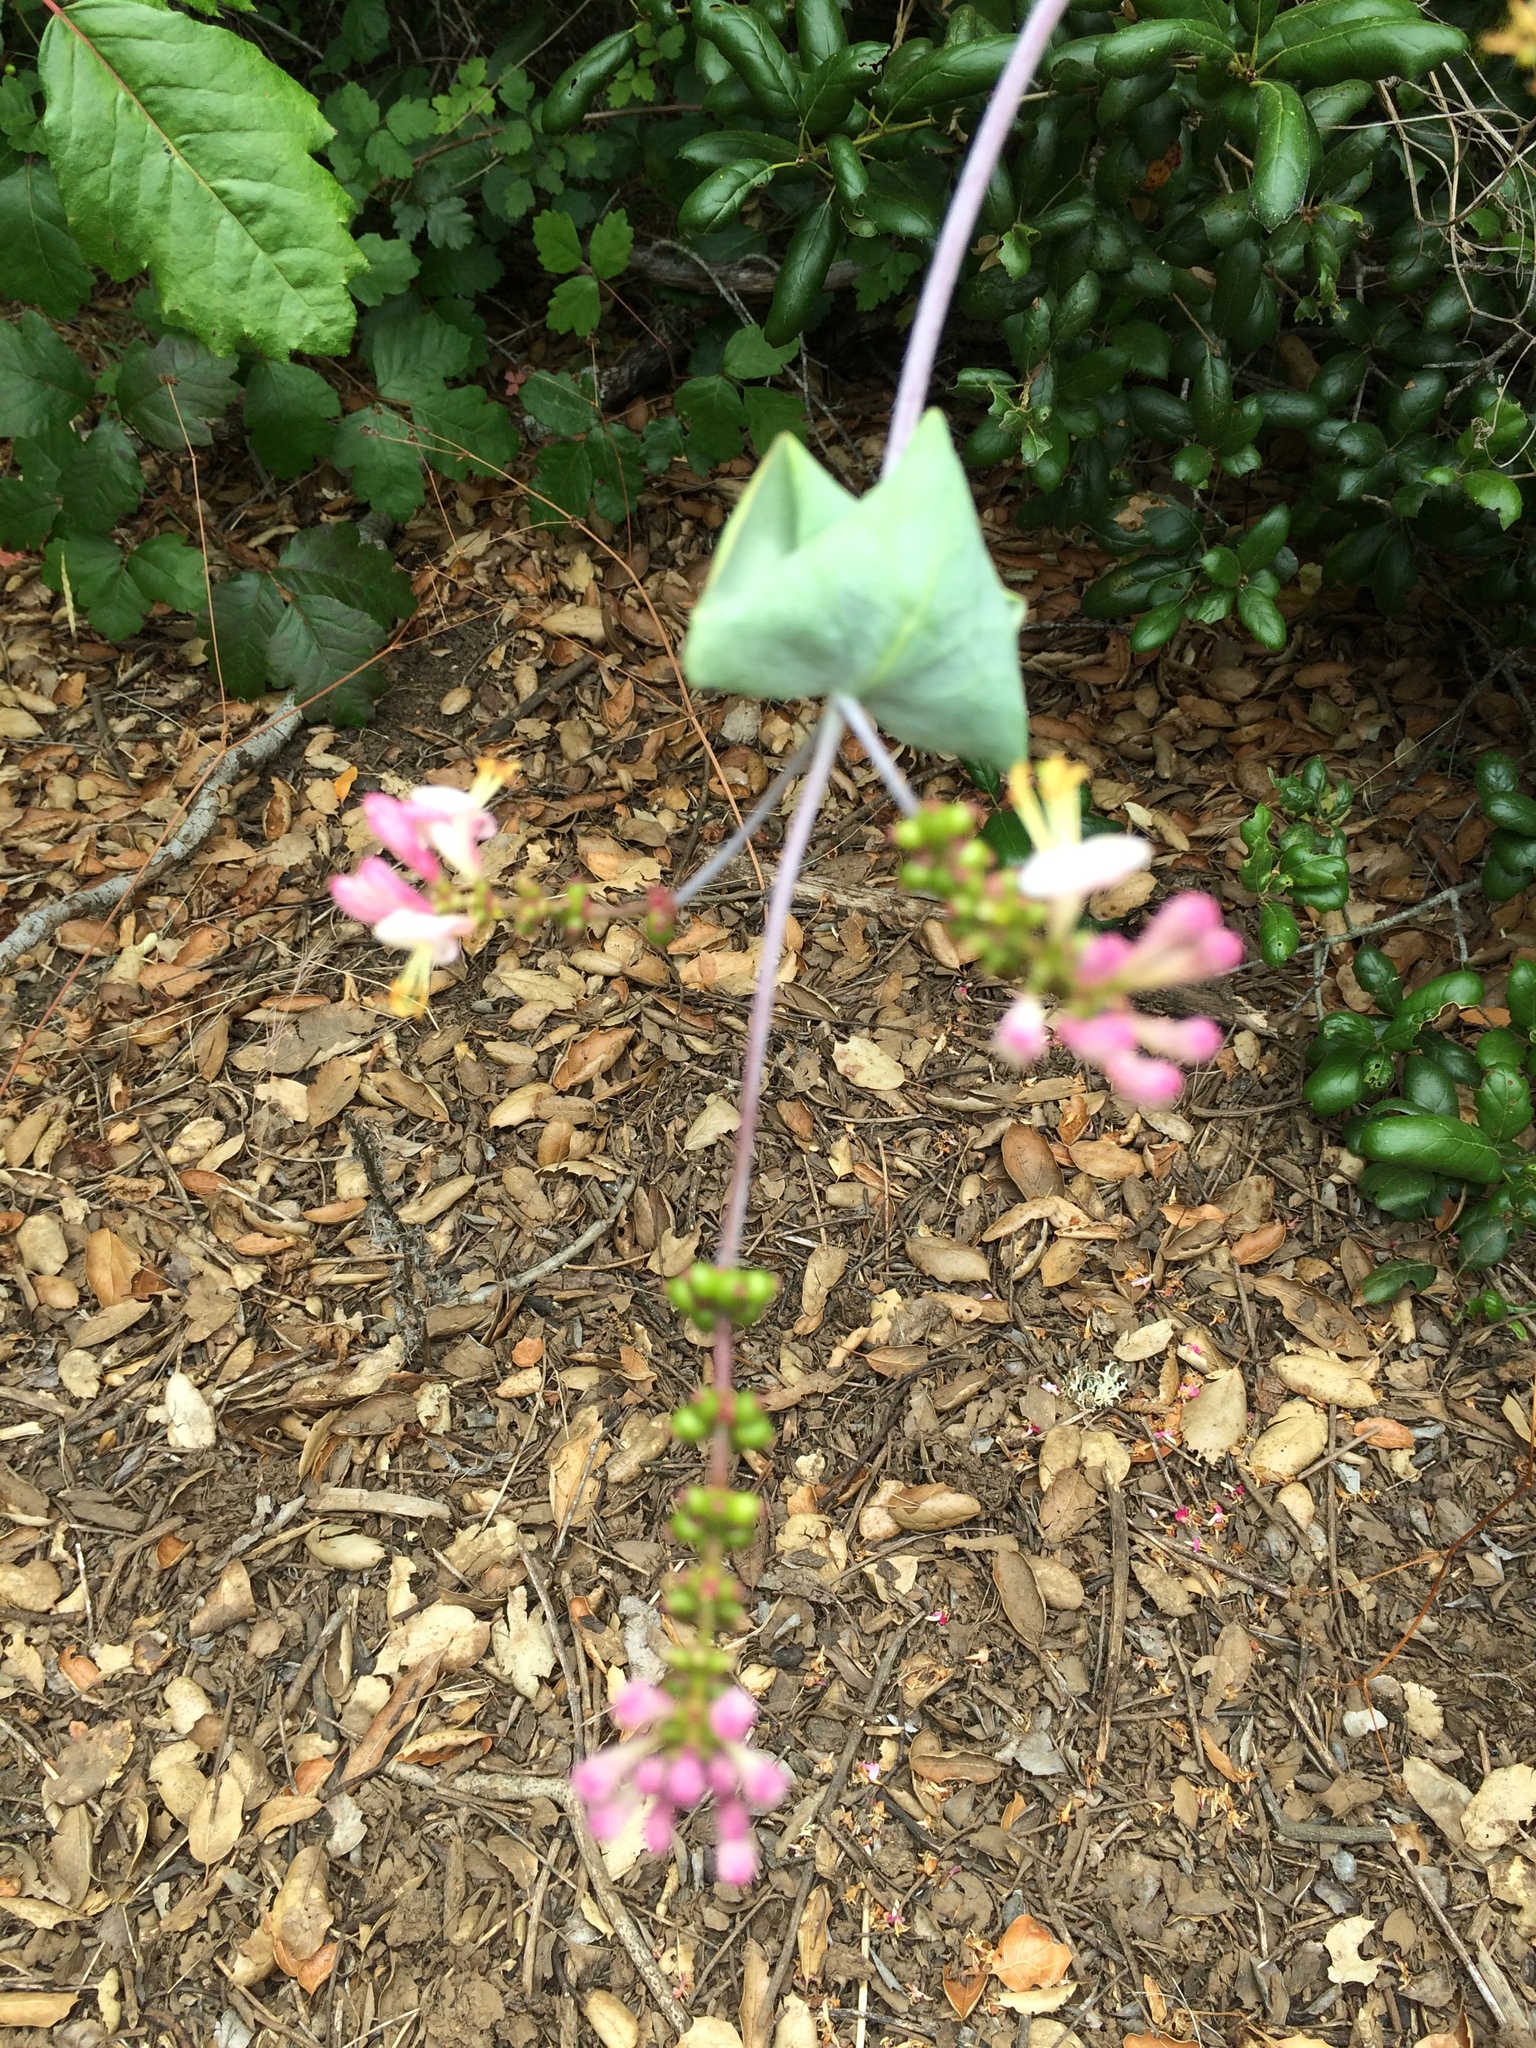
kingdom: Plantae
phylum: Tracheophyta
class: Magnoliopsida
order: Dipsacales
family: Caprifoliaceae
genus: Lonicera
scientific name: Lonicera hispidula
